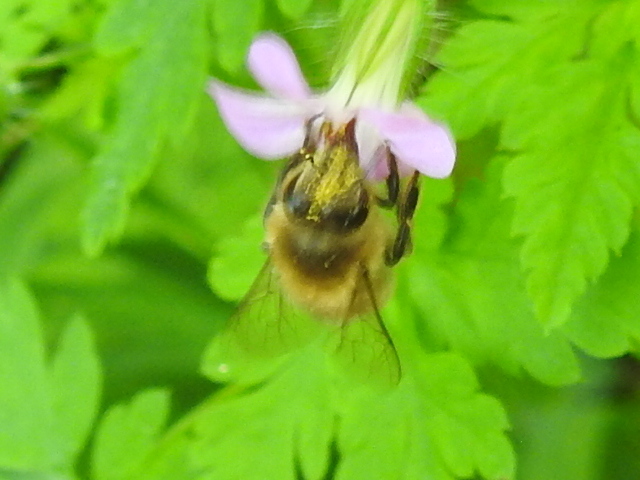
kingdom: Animalia
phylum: Arthropoda
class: Insecta
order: Hymenoptera
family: Apidae
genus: Apis
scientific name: Apis mellifera
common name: Honey bee
